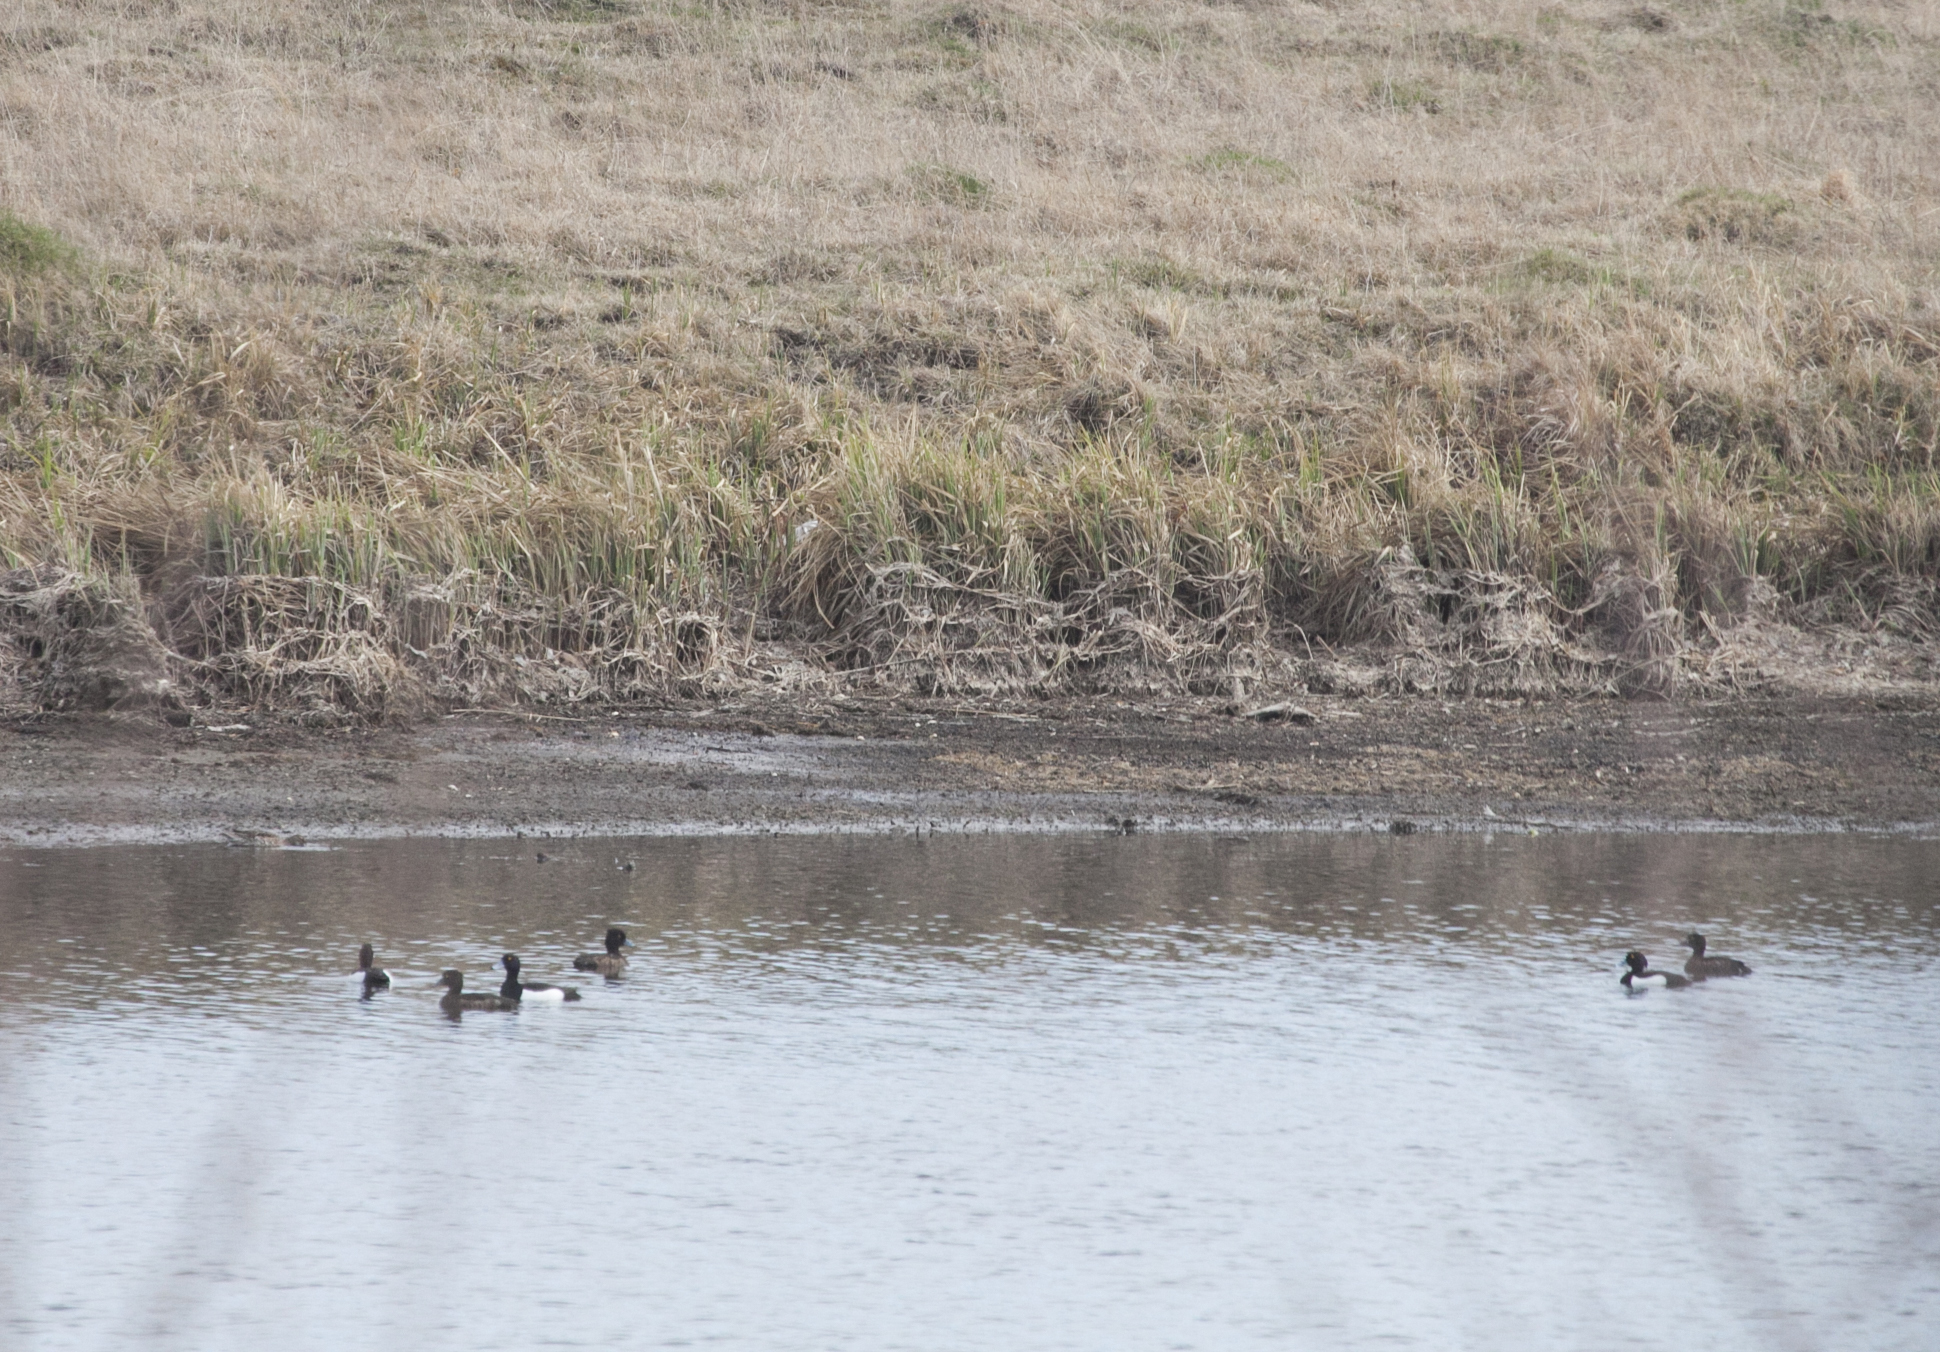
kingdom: Animalia
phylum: Chordata
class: Aves
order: Anseriformes
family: Anatidae
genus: Aythya
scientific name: Aythya fuligula
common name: Tufted duck
